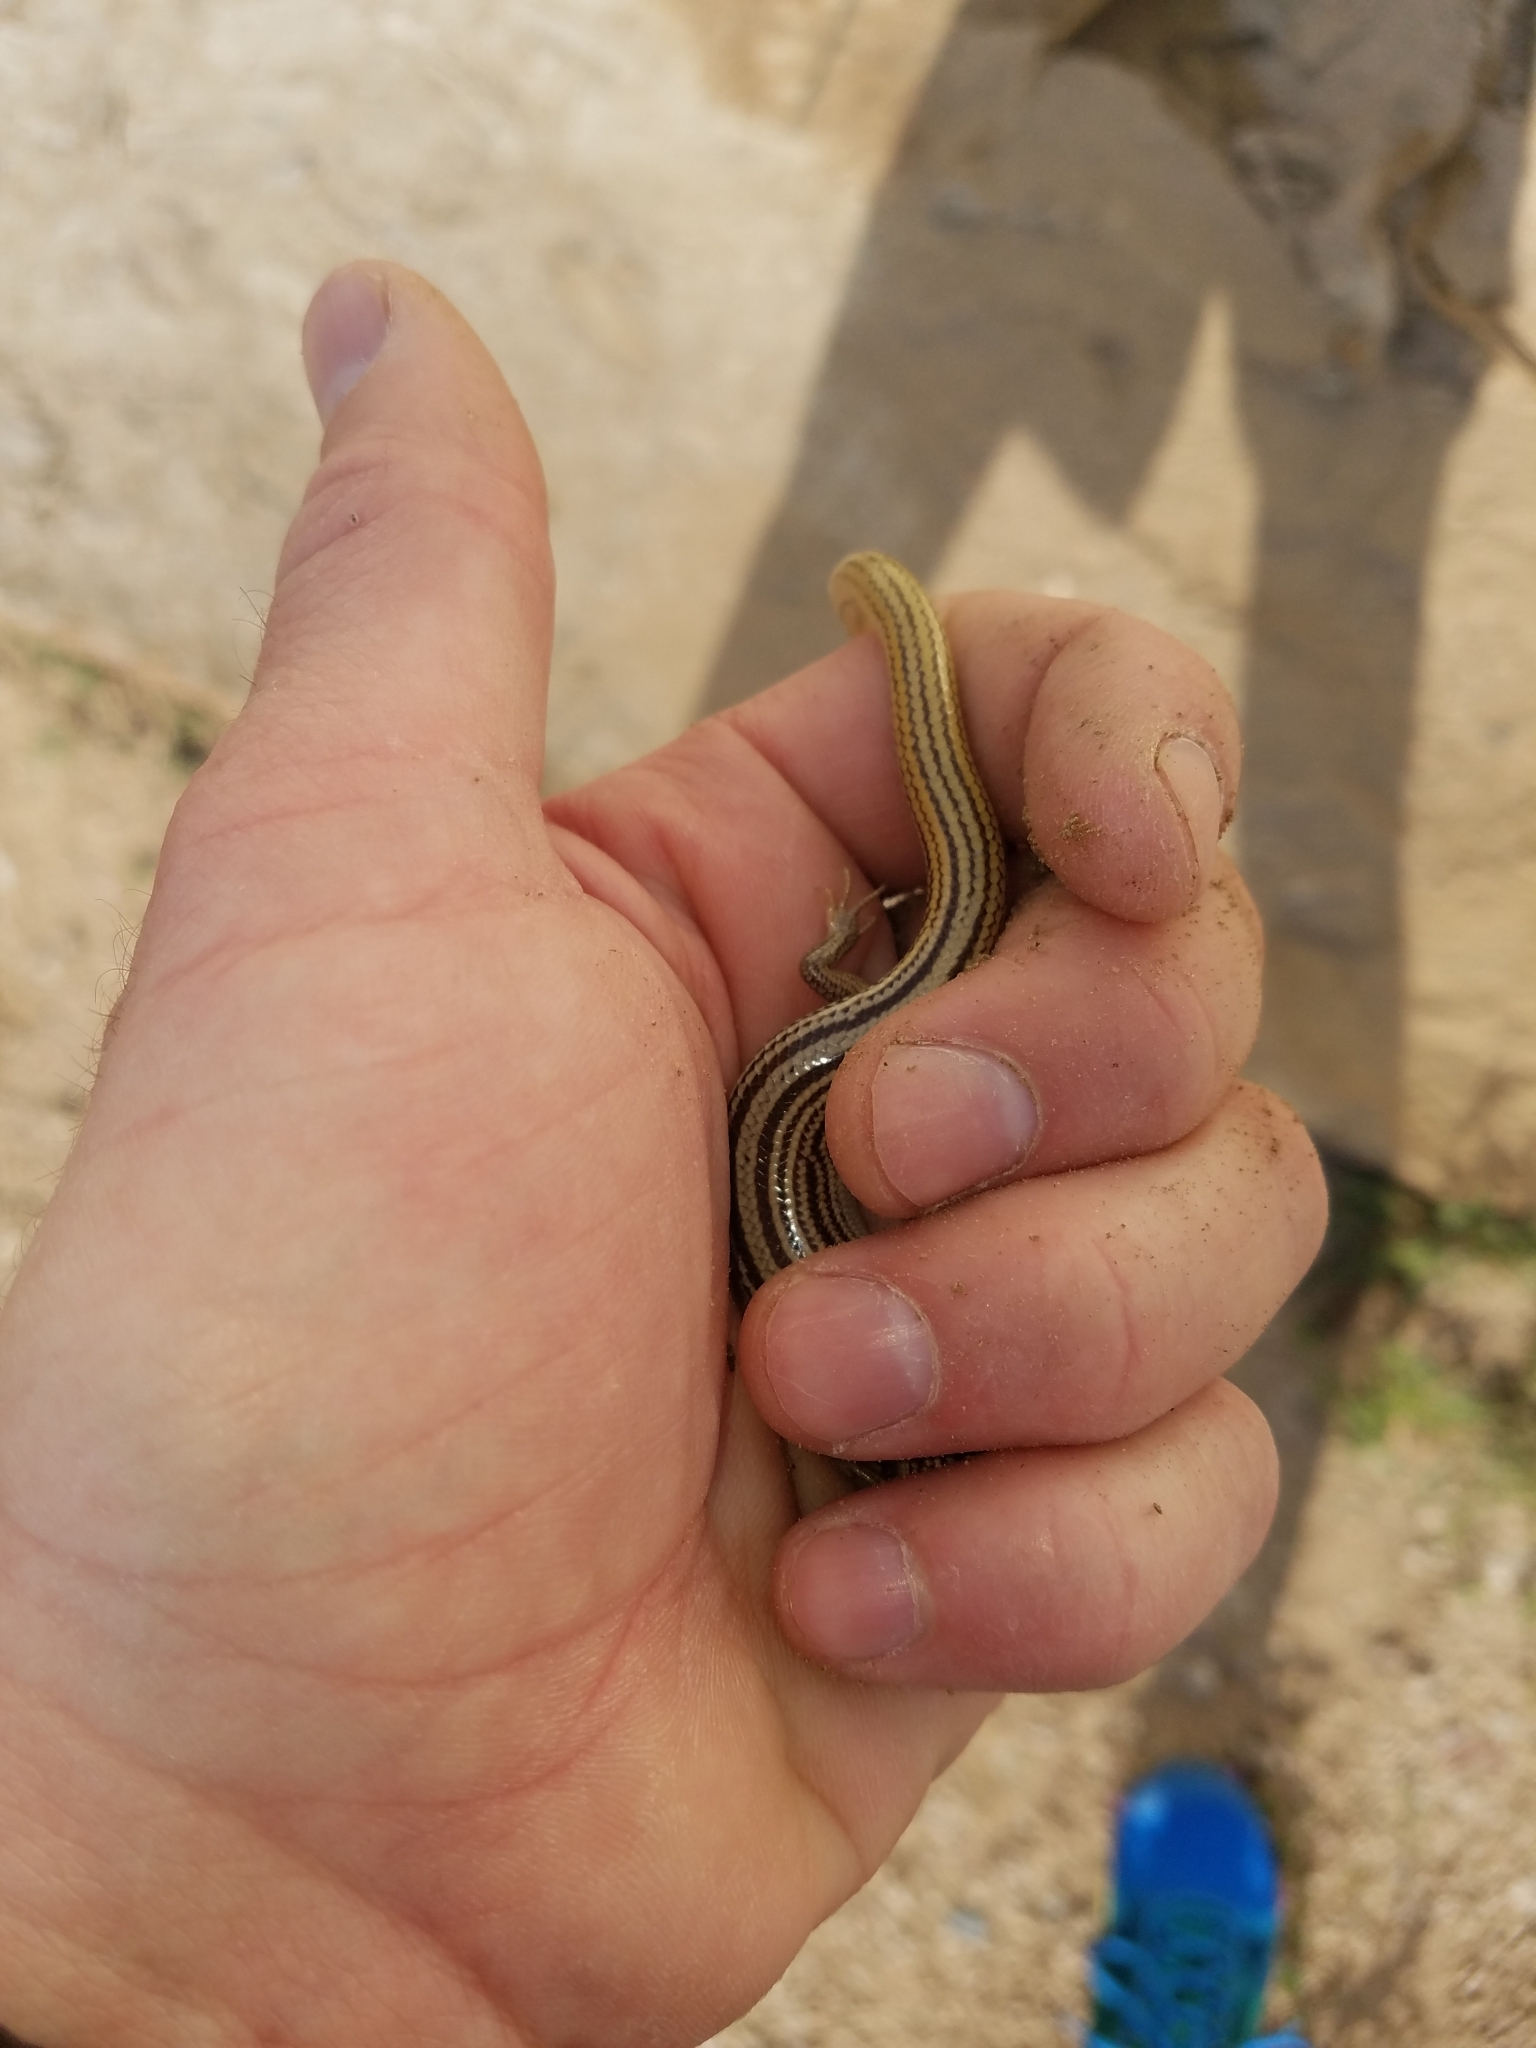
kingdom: Animalia
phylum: Chordata
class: Squamata
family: Scincidae
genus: Plestiodon
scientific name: Plestiodon multivirgatus
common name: Many-lined skink
